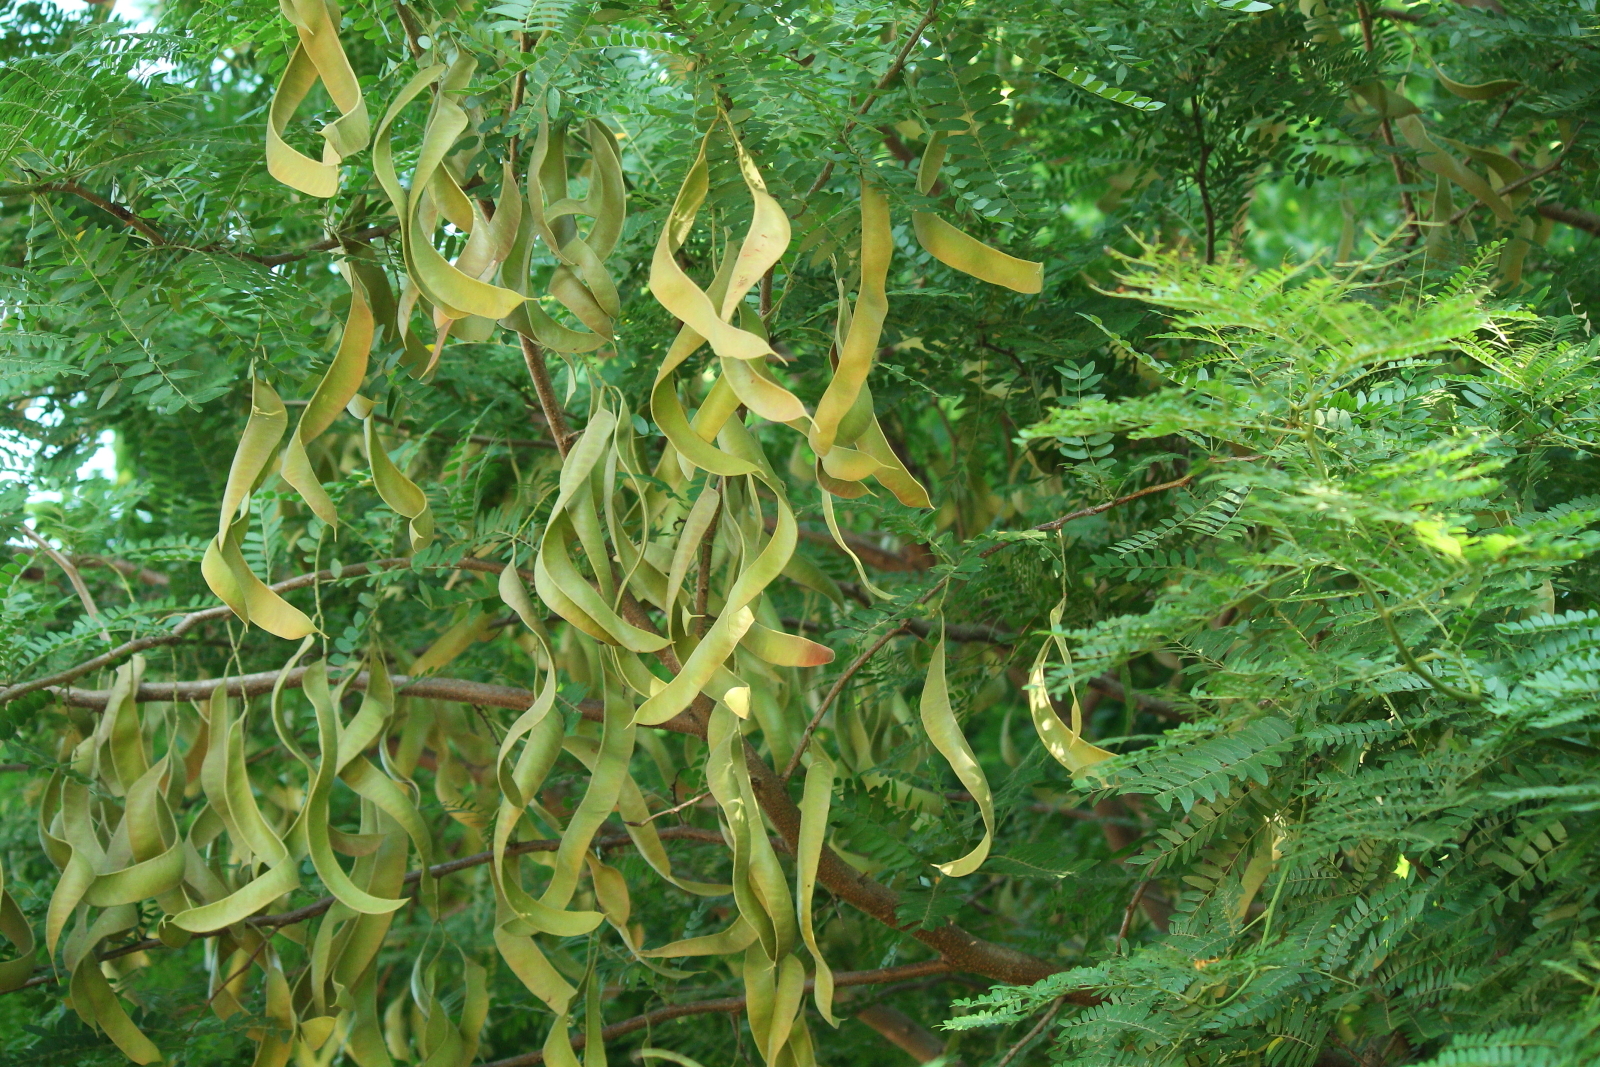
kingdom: Plantae
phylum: Tracheophyta
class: Magnoliopsida
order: Fabales
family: Fabaceae
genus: Gleditsia
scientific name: Gleditsia triacanthos
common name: Common honeylocust
